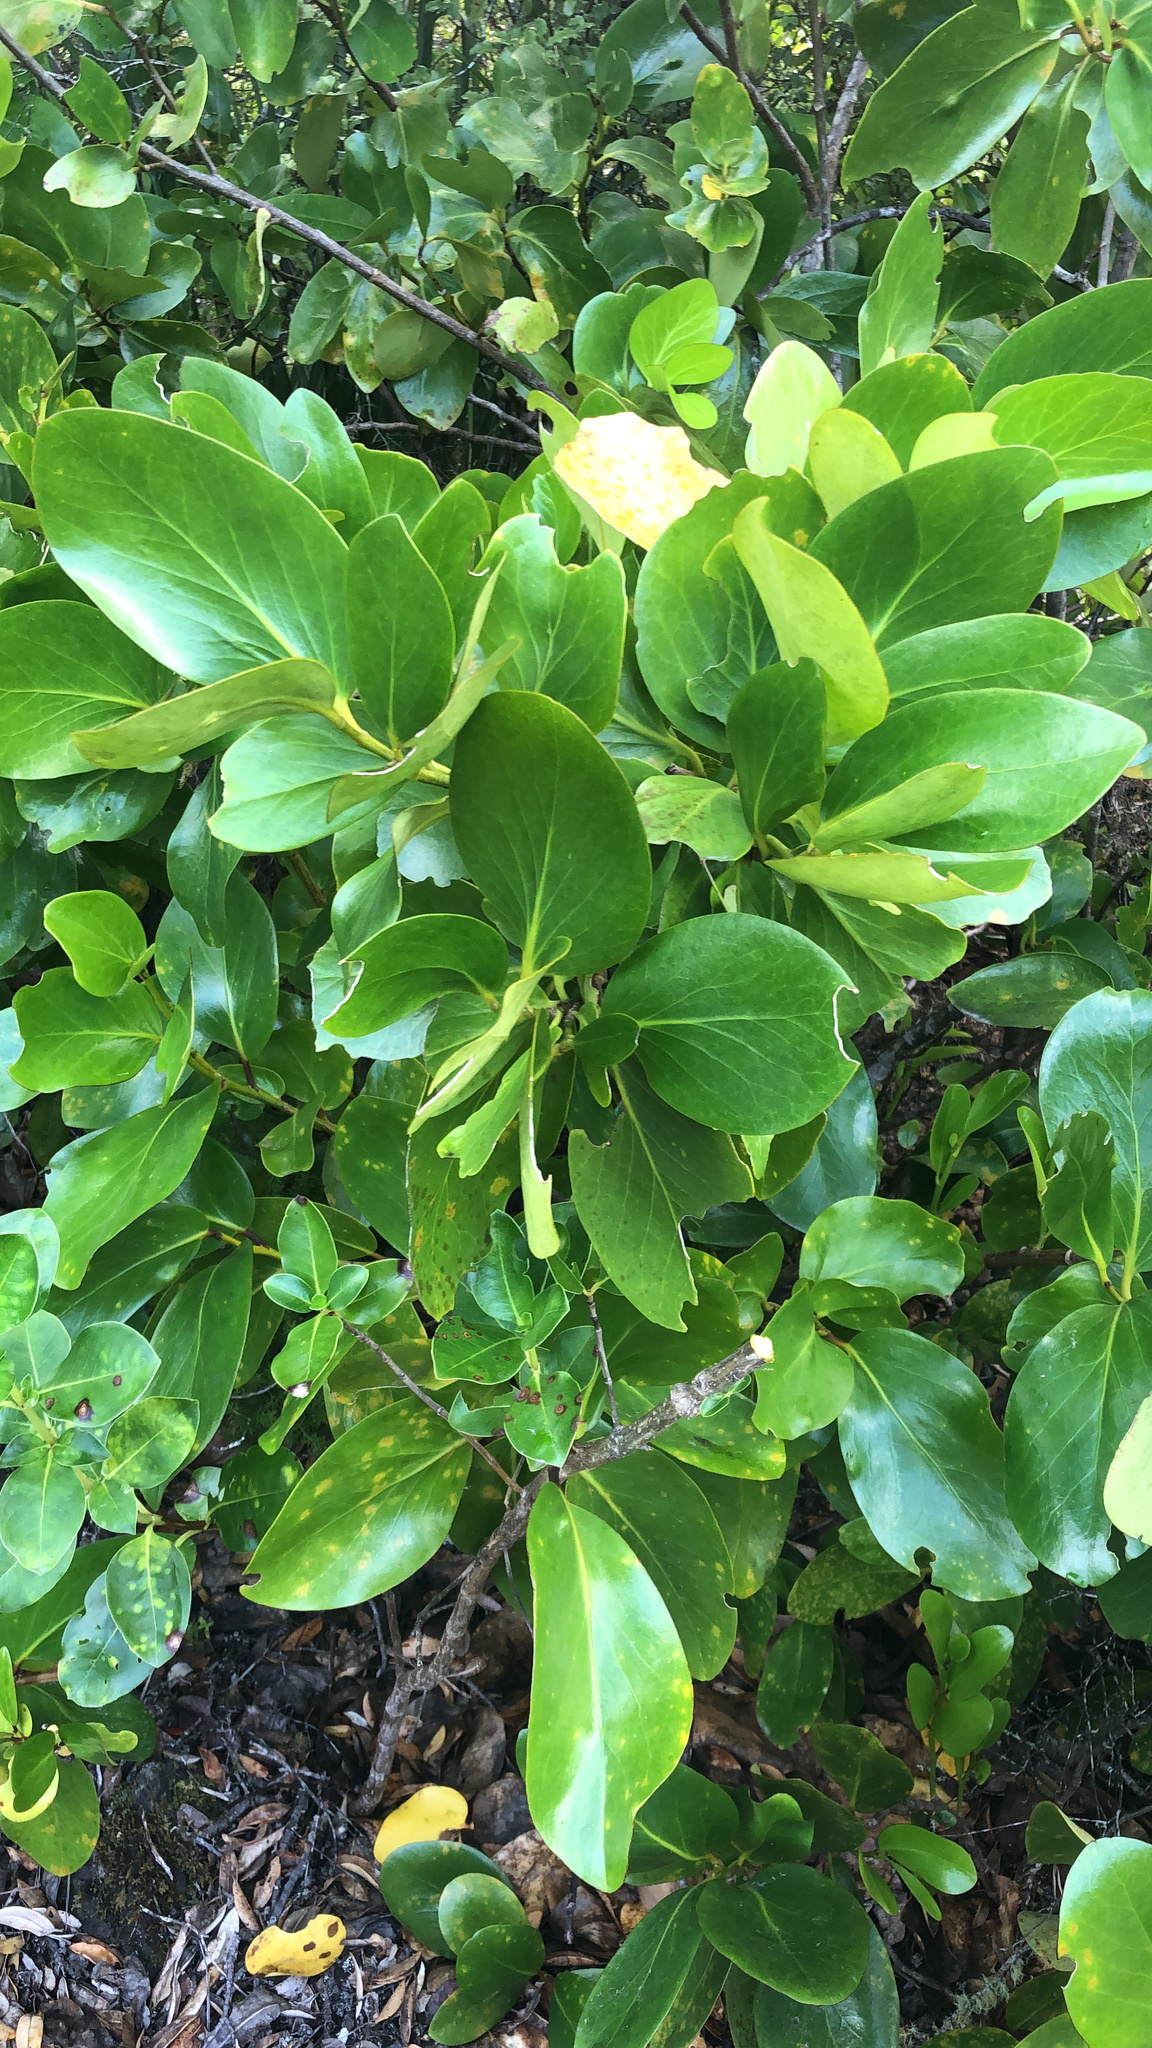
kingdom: Plantae
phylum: Tracheophyta
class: Magnoliopsida
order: Apiales
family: Griseliniaceae
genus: Griselinia
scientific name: Griselinia lucida
